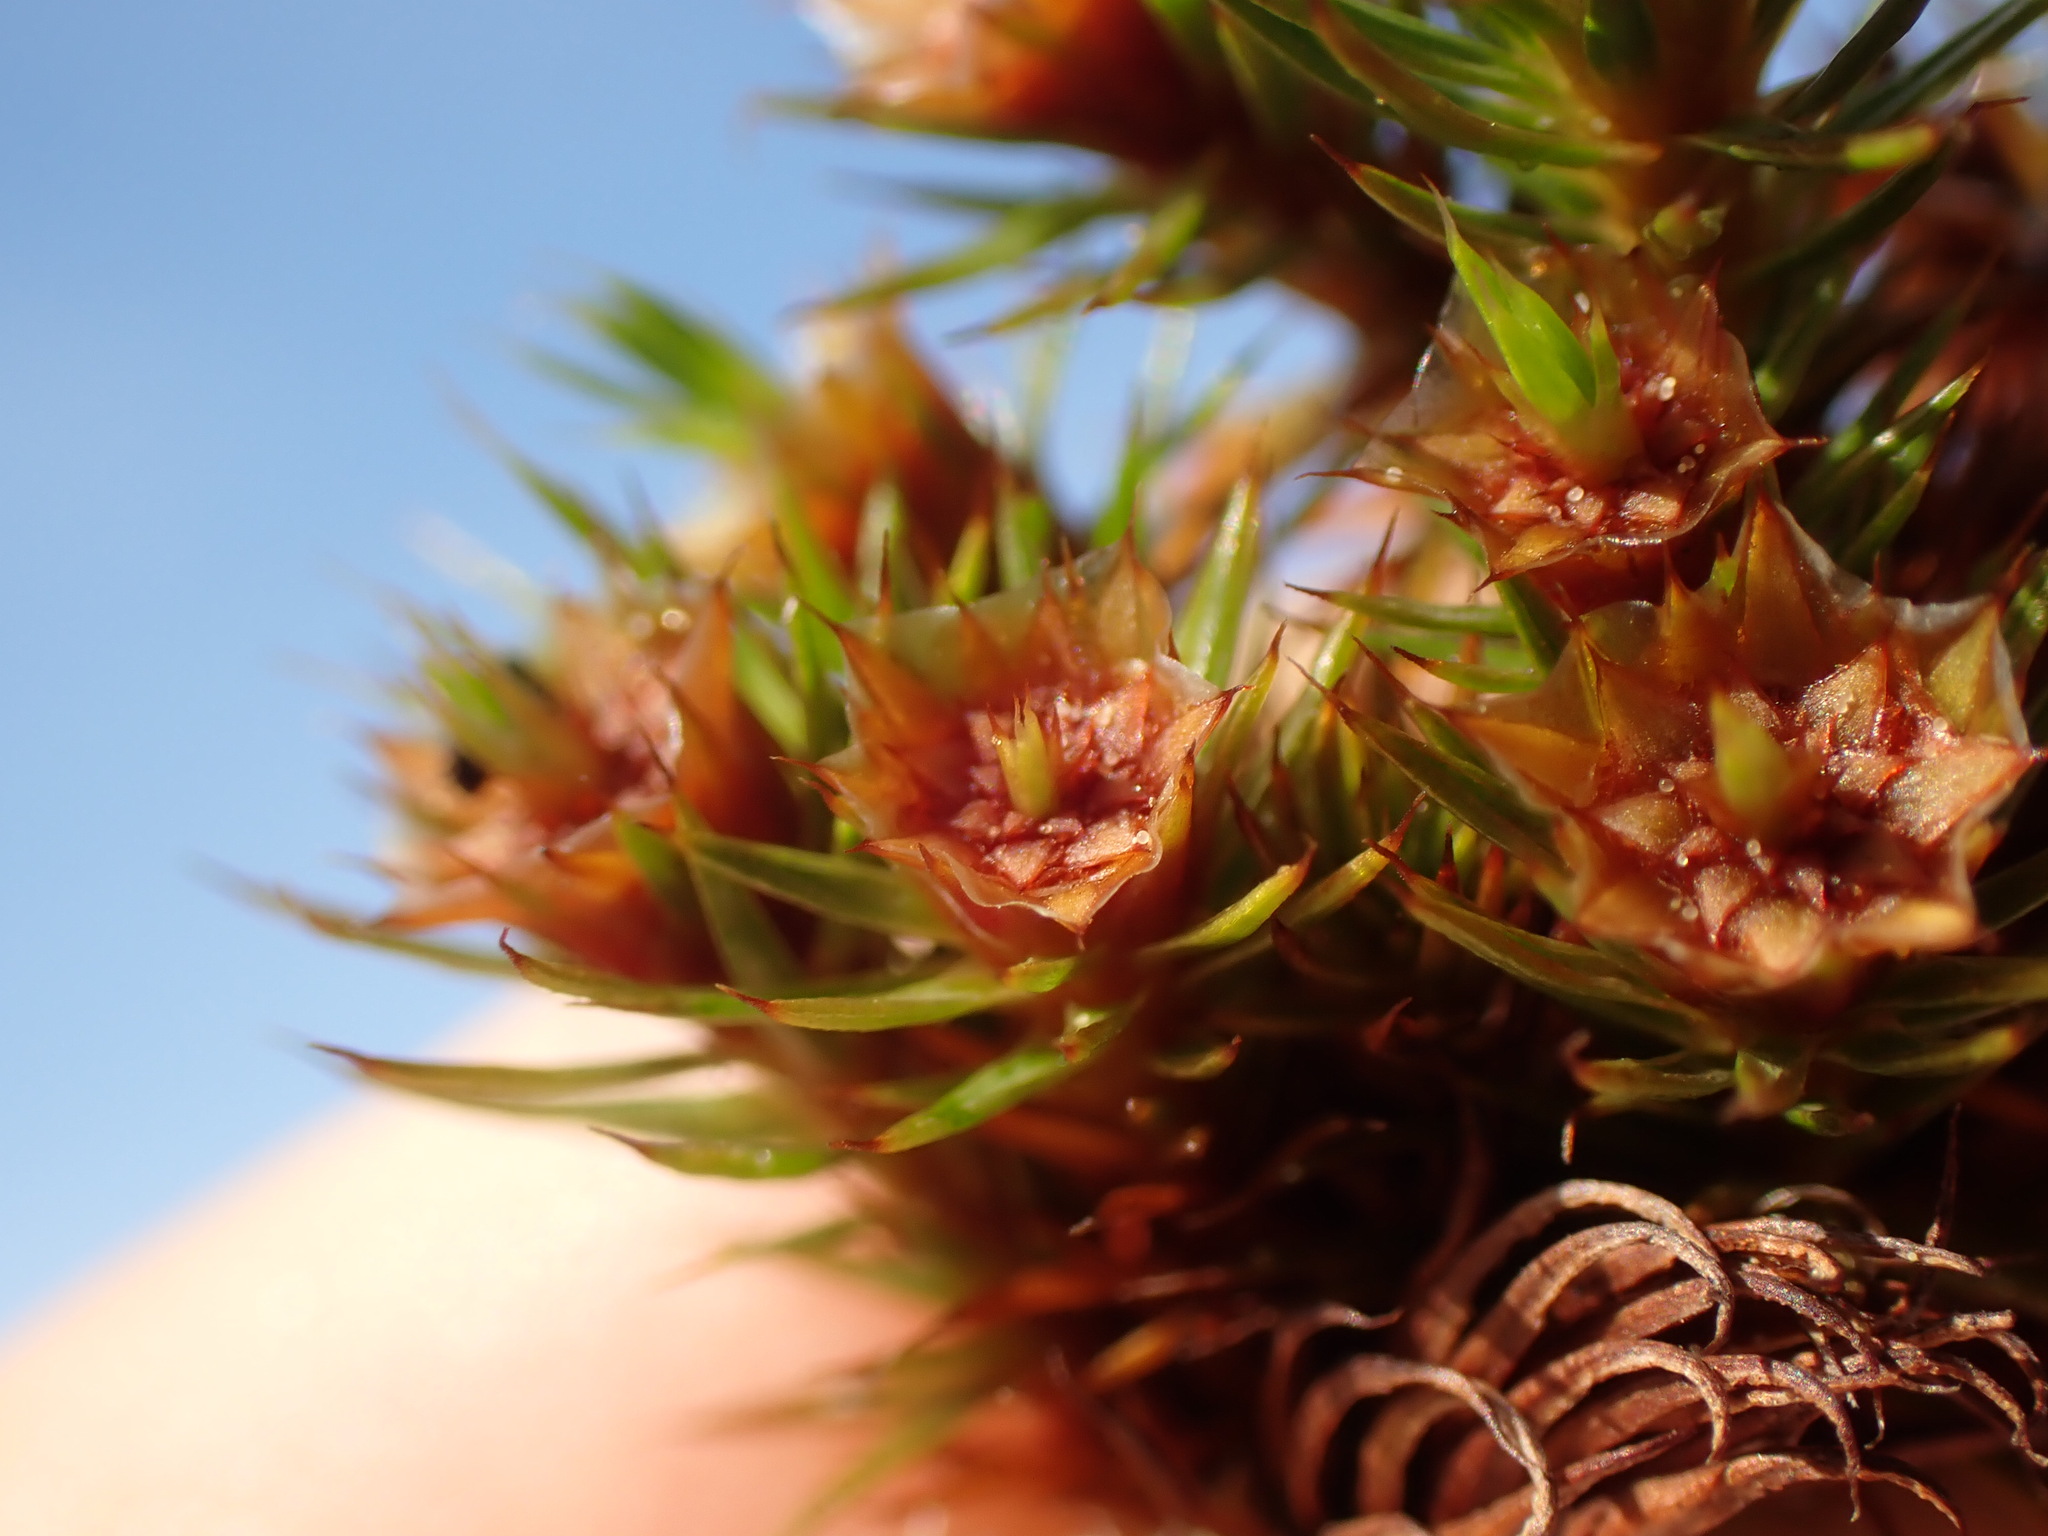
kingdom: Plantae
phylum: Bryophyta
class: Polytrichopsida
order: Polytrichales
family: Polytrichaceae
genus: Polytrichum
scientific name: Polytrichum juniperinum
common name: Juniper haircap moss
